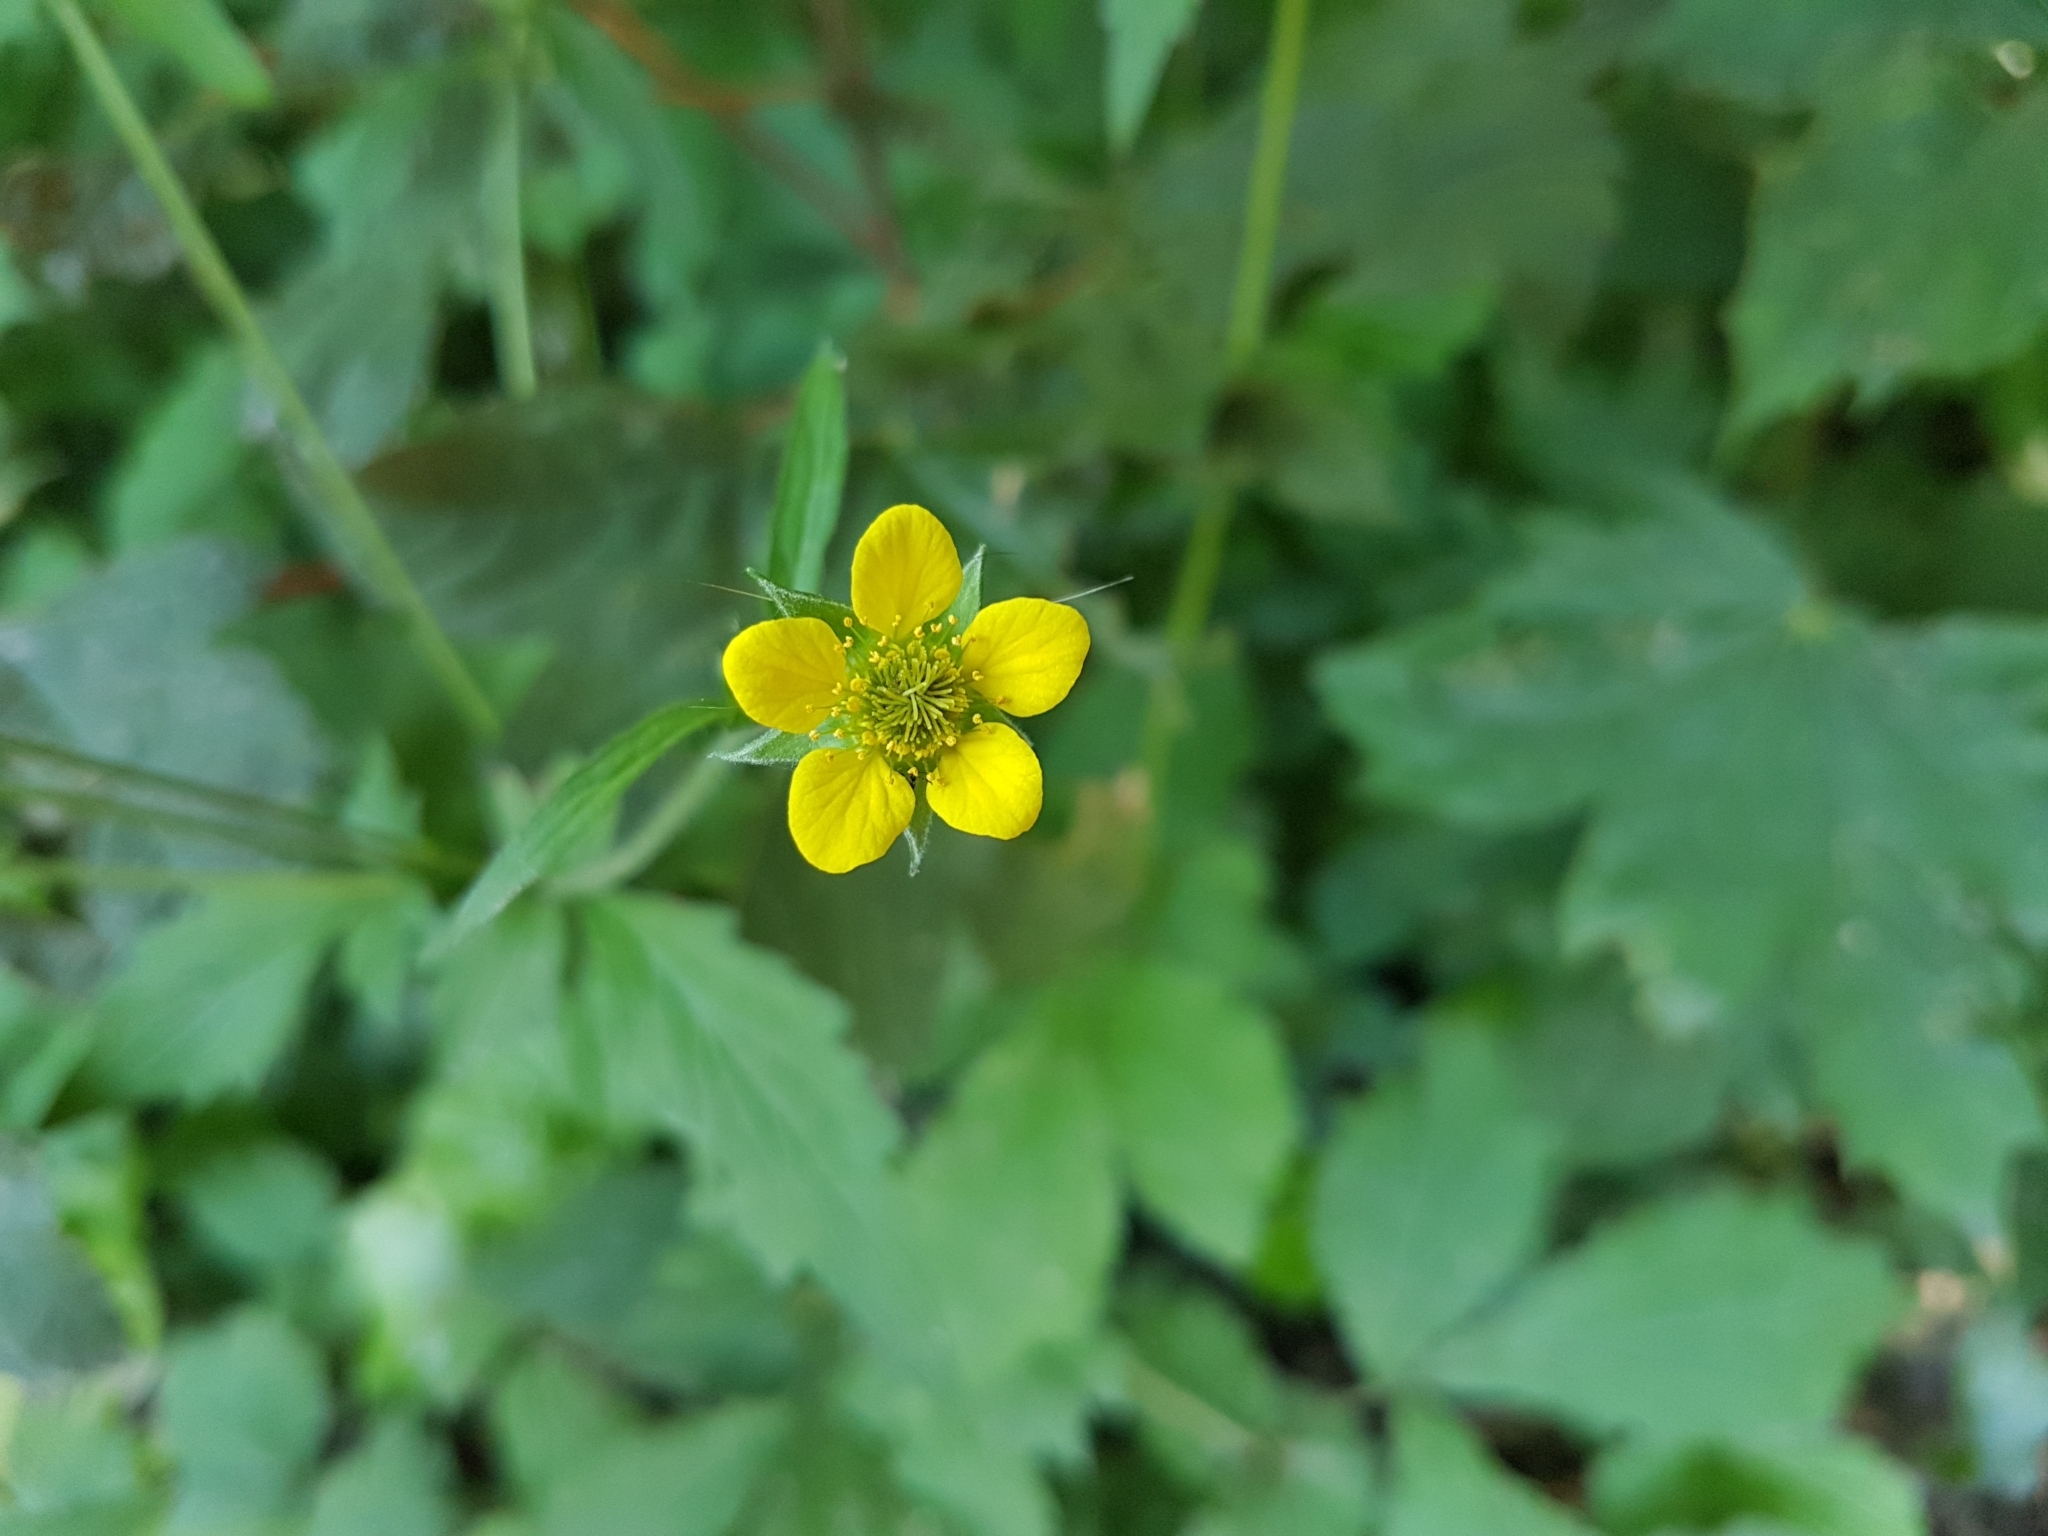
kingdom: Plantae
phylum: Tracheophyta
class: Magnoliopsida
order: Rosales
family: Rosaceae
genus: Geum
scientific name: Geum urbanum
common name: Wood avens
